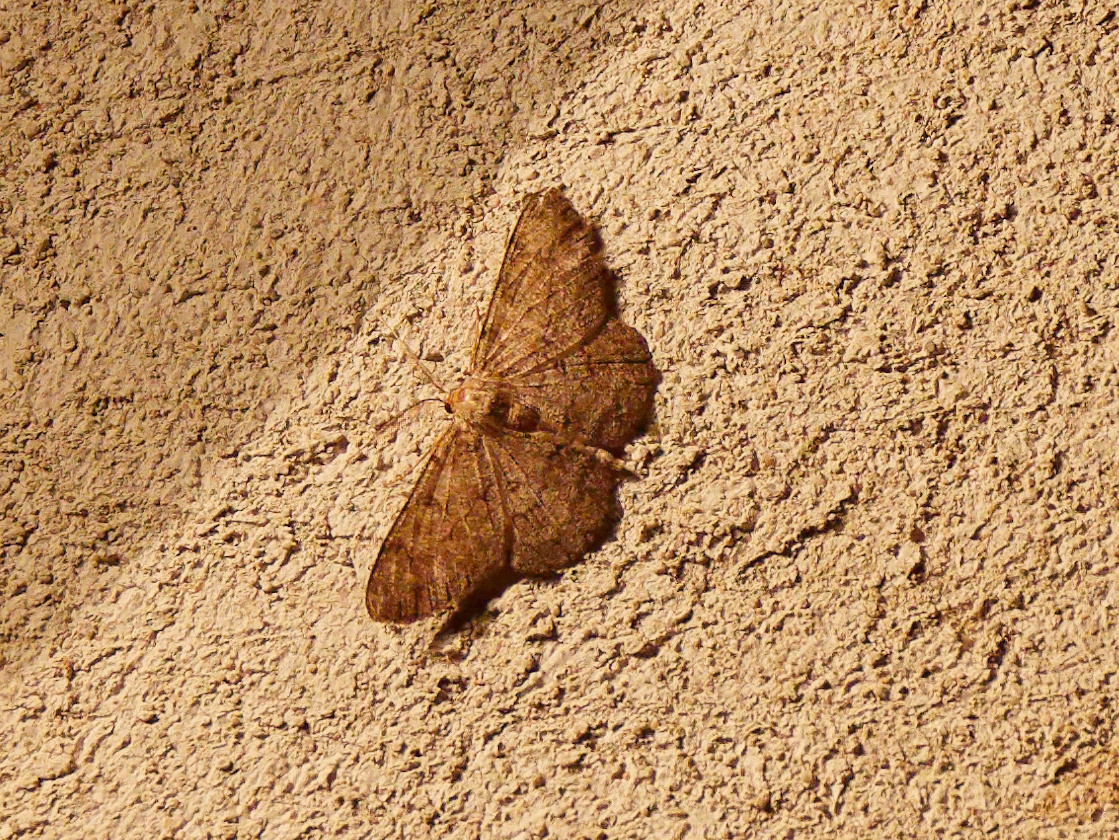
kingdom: Animalia
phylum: Arthropoda
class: Insecta
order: Lepidoptera
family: Geometridae
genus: Hypomecis
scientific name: Hypomecis punctinalis
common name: Pale oak beauty
